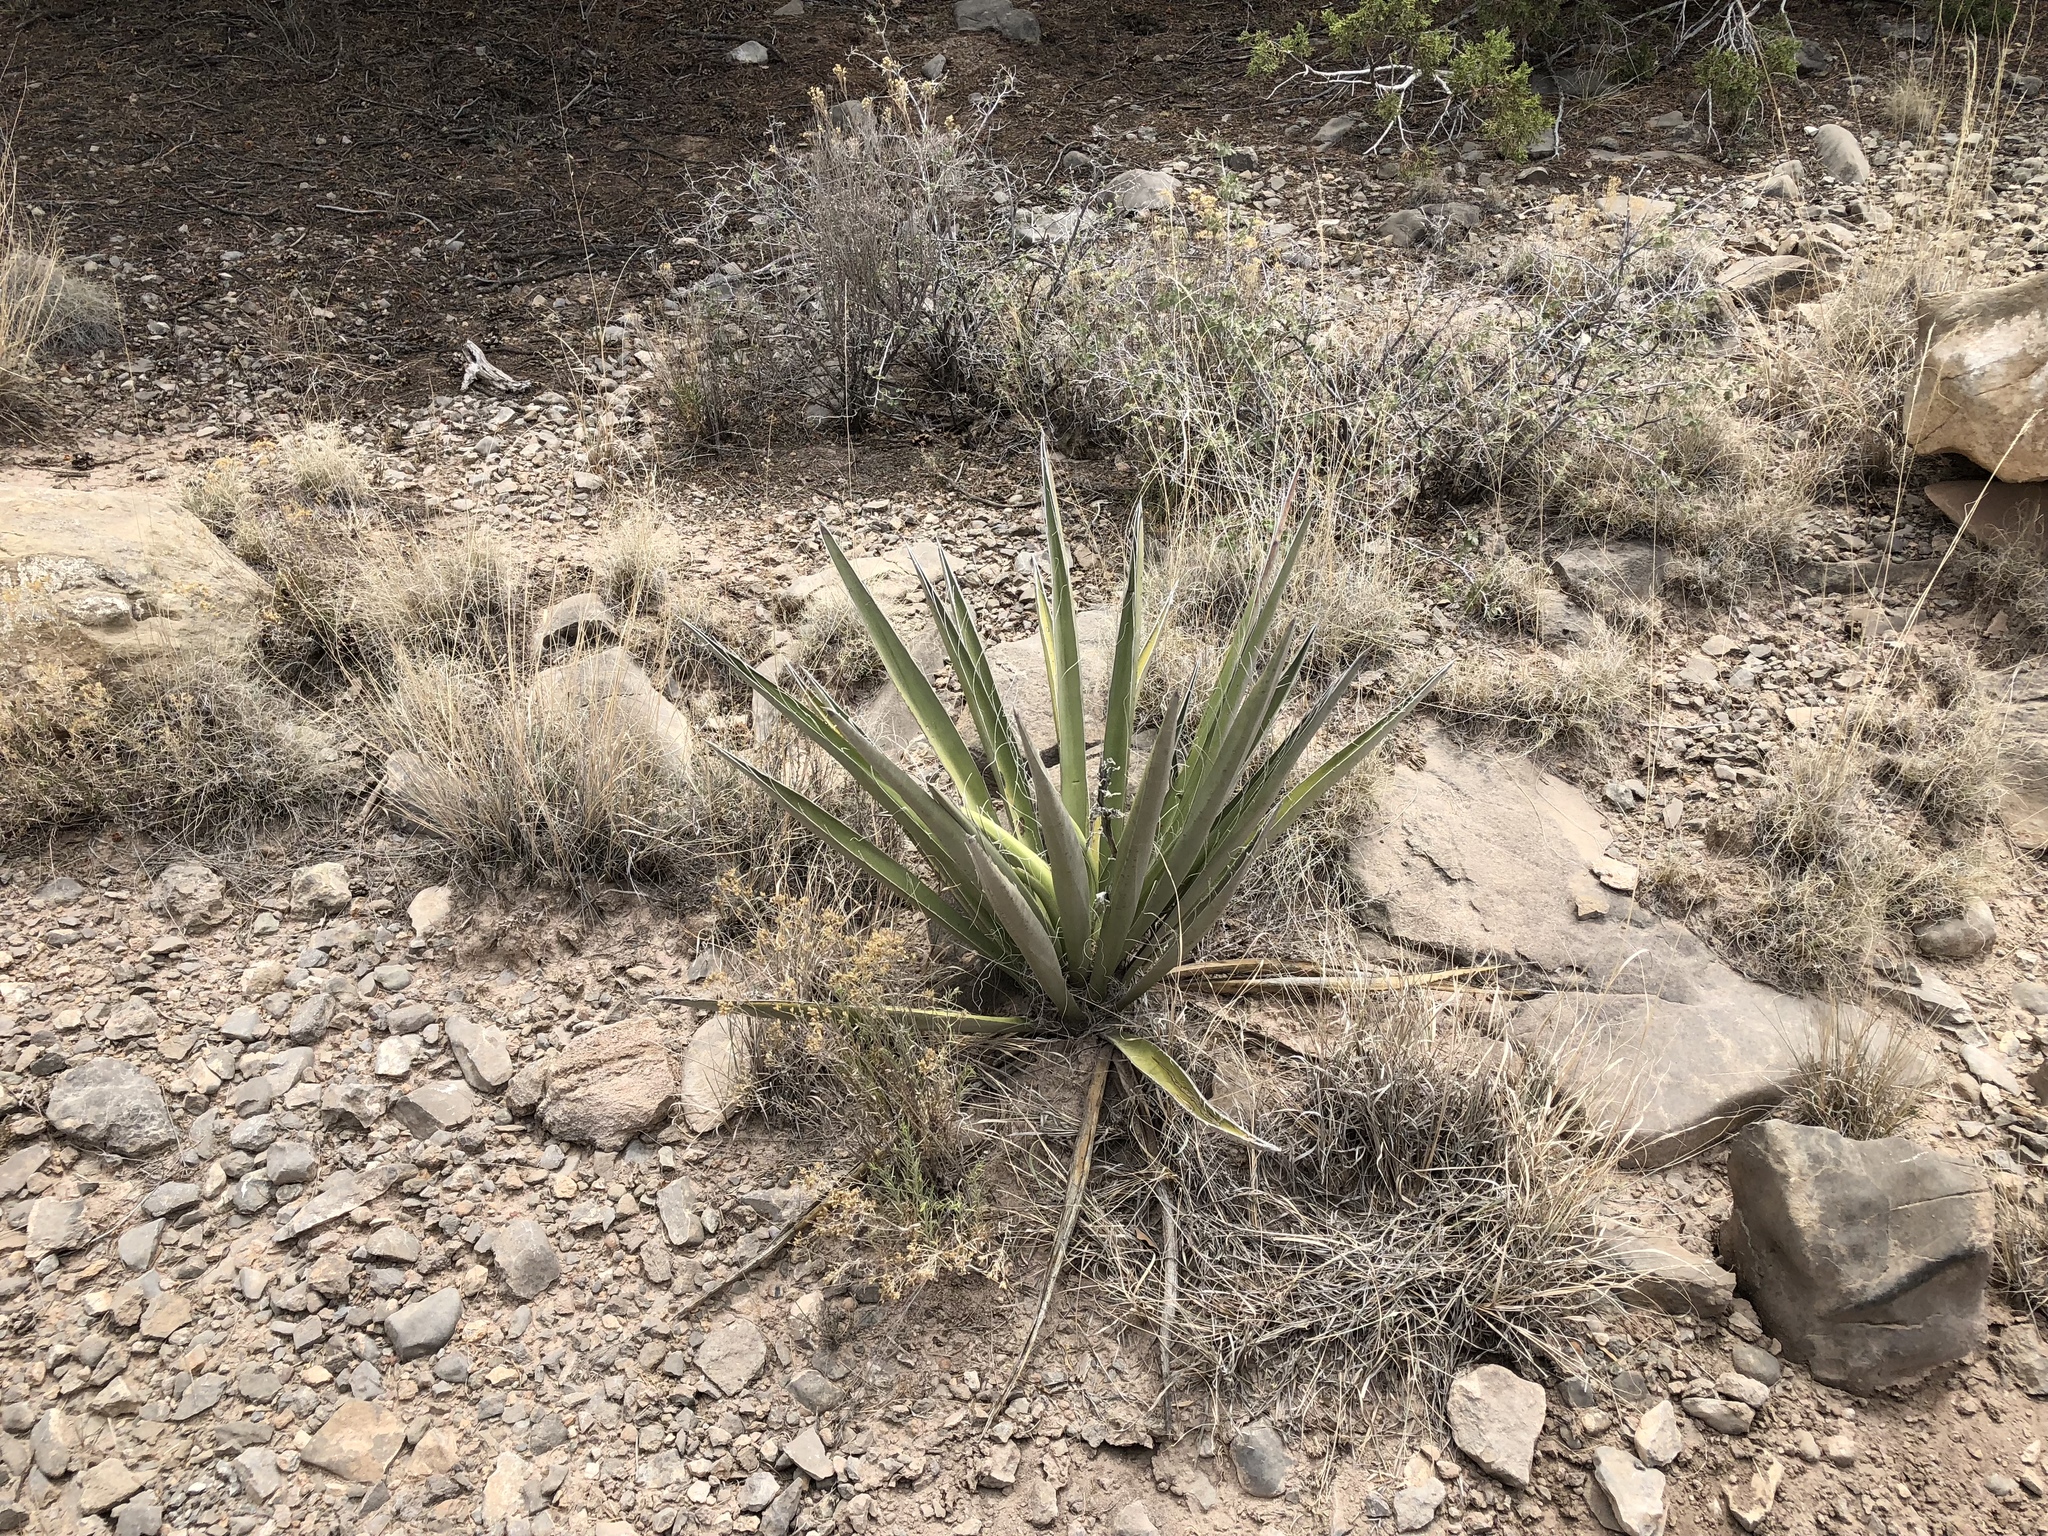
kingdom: Plantae
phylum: Tracheophyta
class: Liliopsida
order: Asparagales
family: Asparagaceae
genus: Yucca
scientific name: Yucca baccata
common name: Banana yucca
